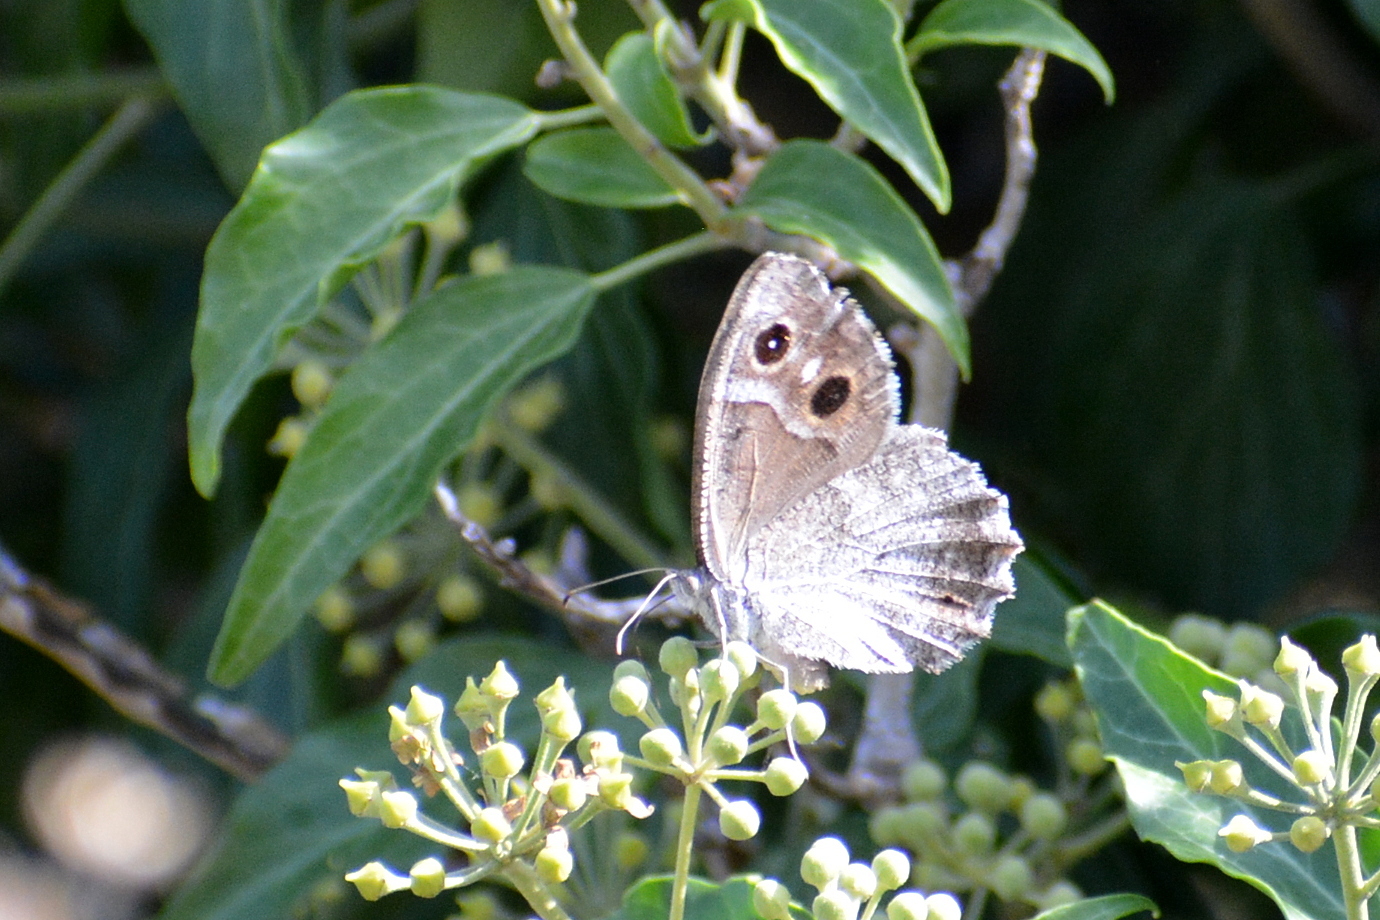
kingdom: Animalia
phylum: Arthropoda
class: Insecta
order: Lepidoptera
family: Nymphalidae
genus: Hipparchia
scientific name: Hipparchia statilinus
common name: Tree grayling
